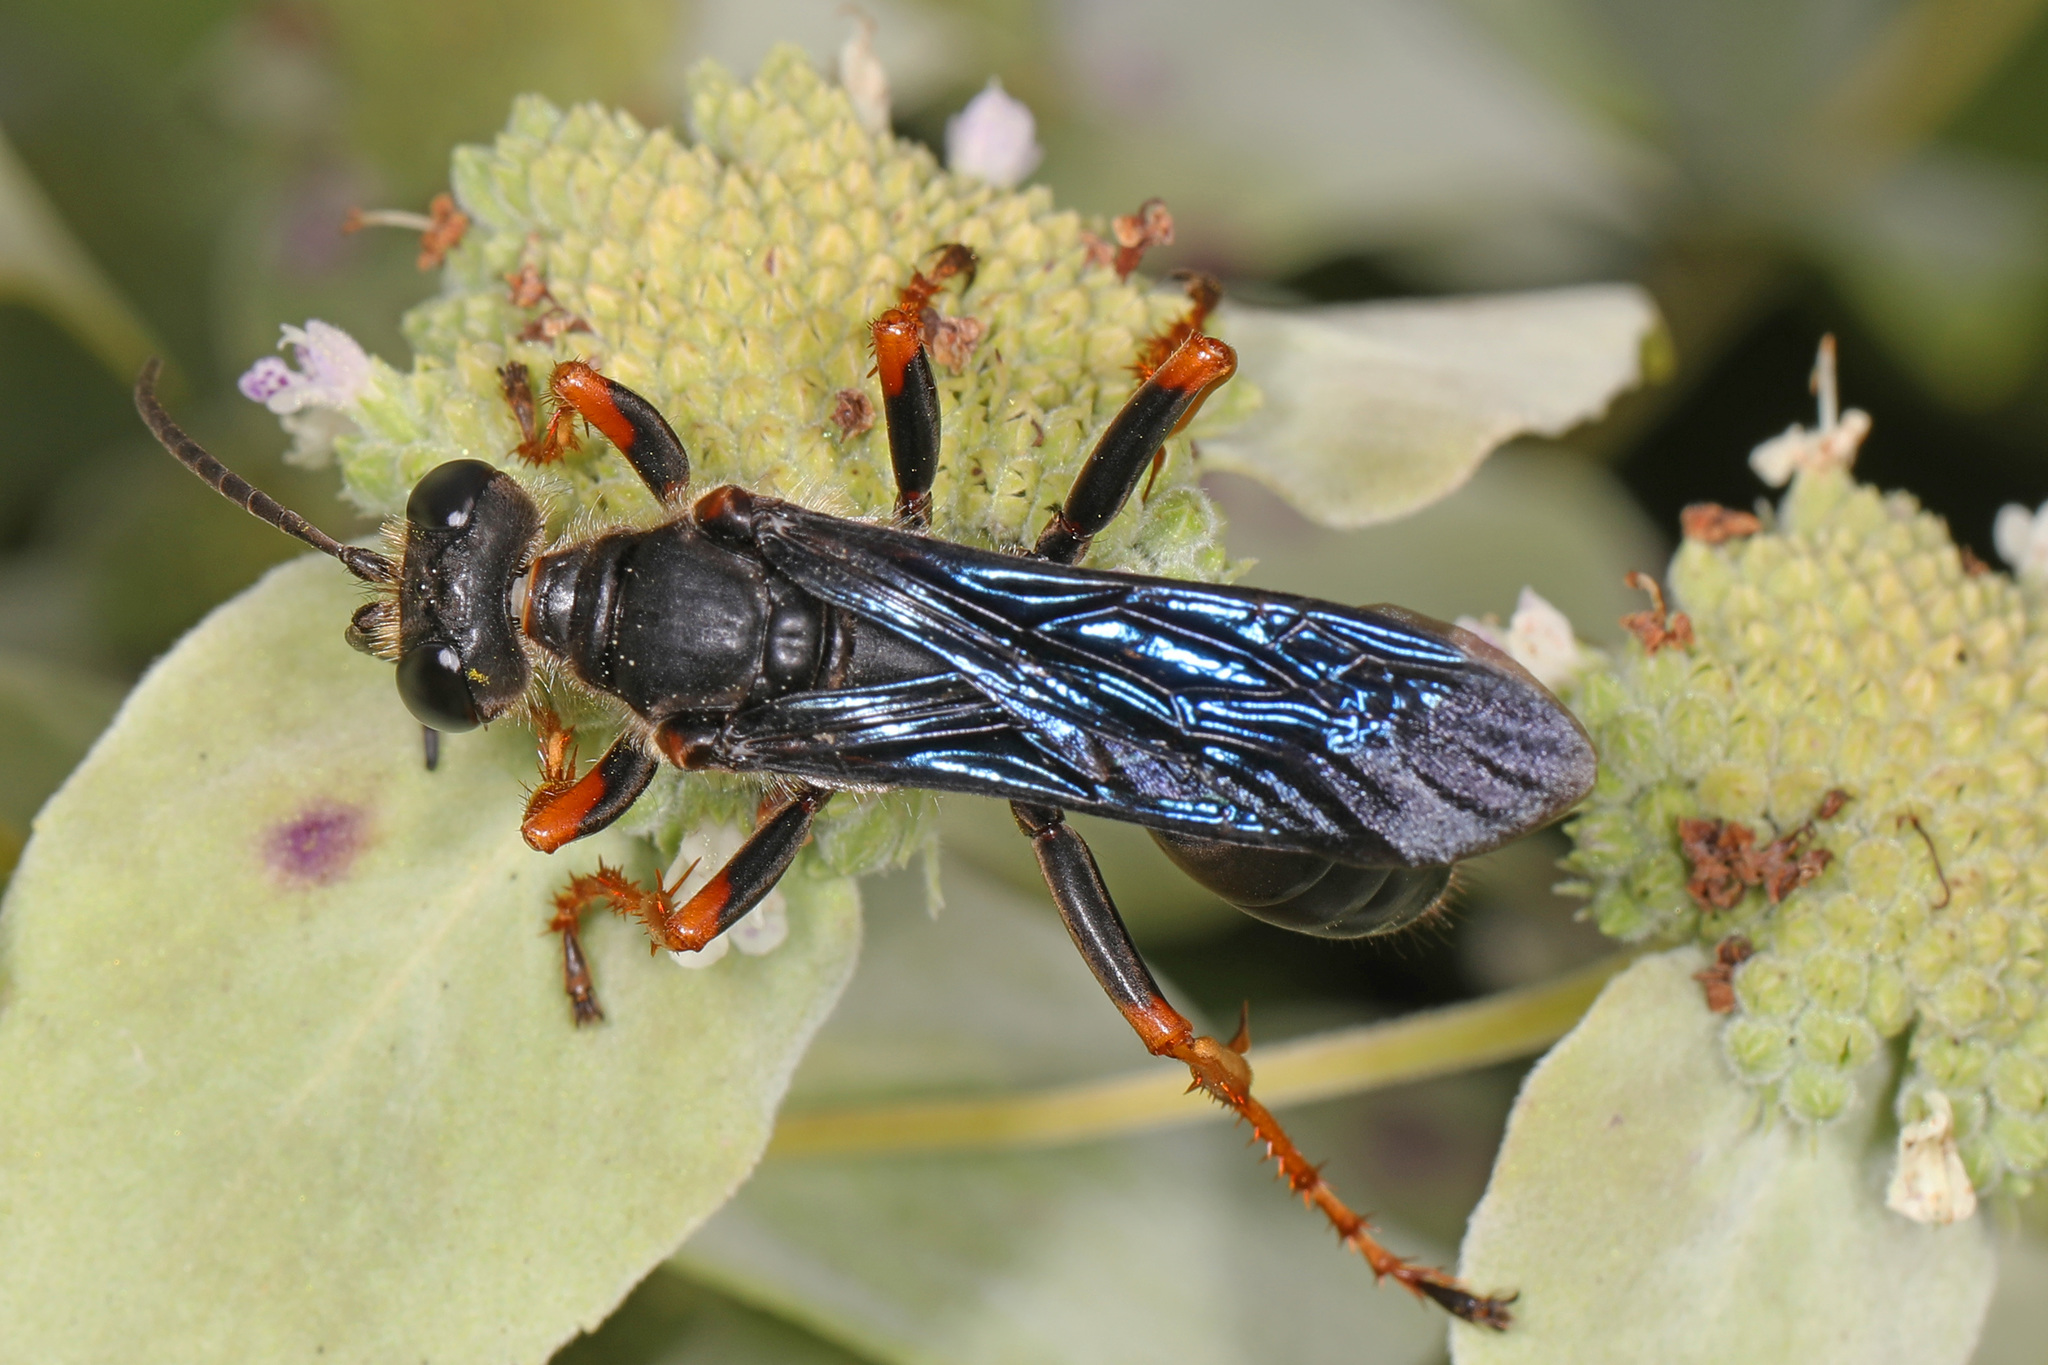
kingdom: Animalia
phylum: Arthropoda
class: Insecta
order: Hymenoptera
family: Sphecidae
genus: Sphex
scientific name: Sphex nudus
